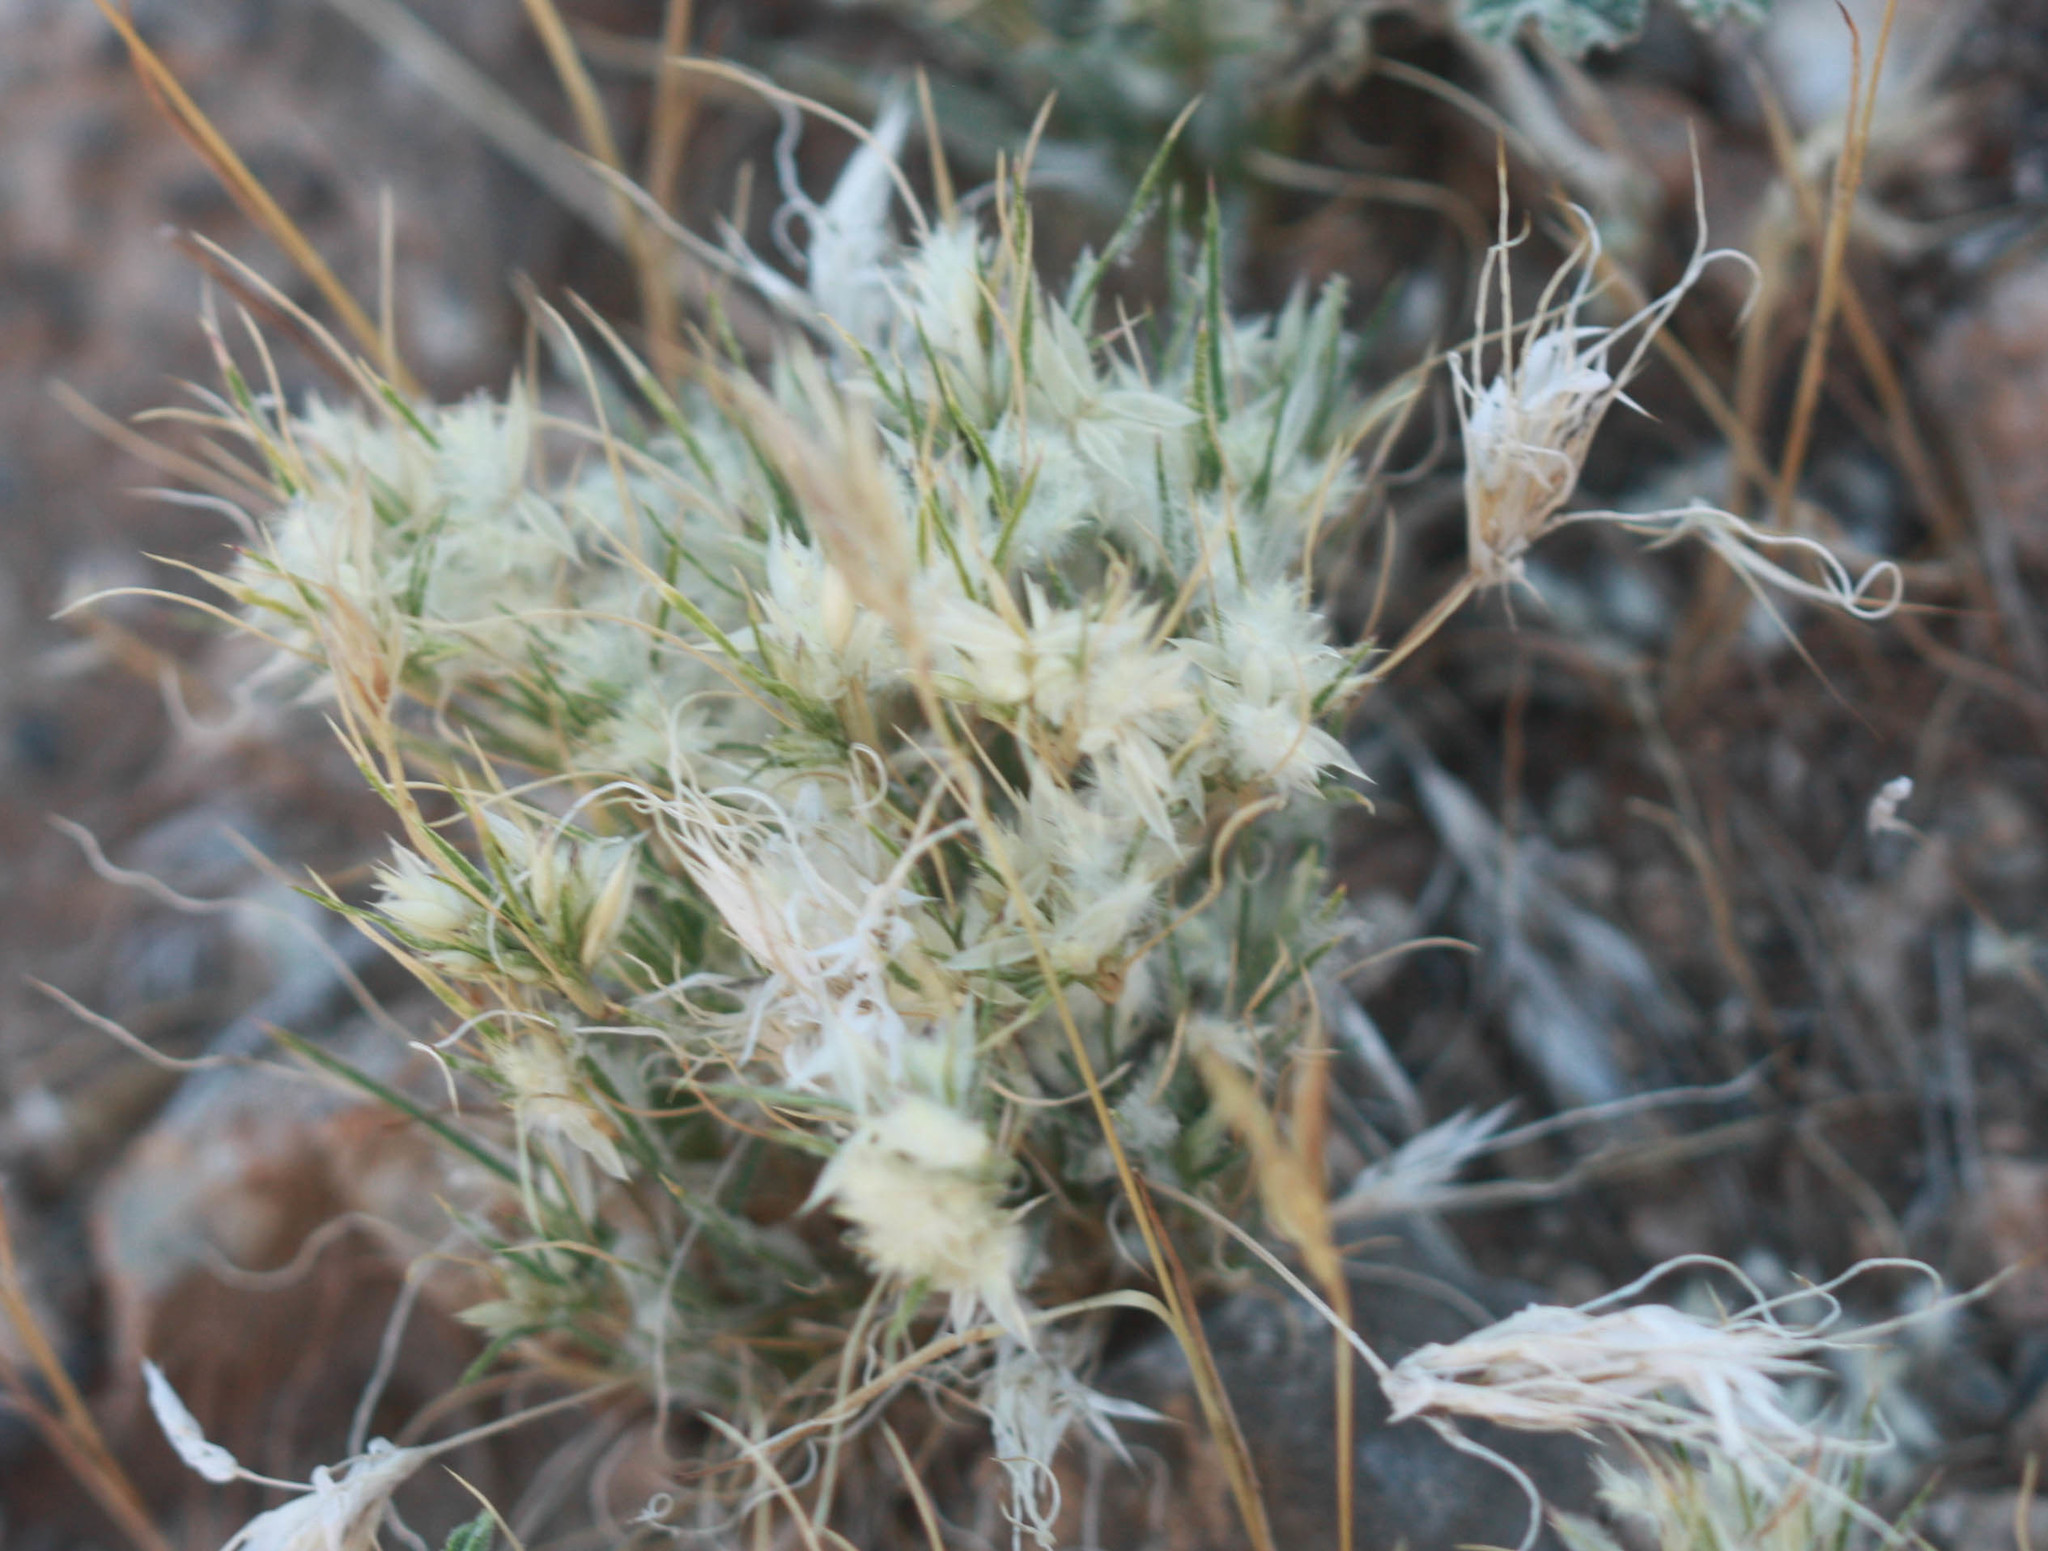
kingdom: Plantae
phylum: Tracheophyta
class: Liliopsida
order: Poales
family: Poaceae
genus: Dasyochloa
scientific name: Dasyochloa pulchella
